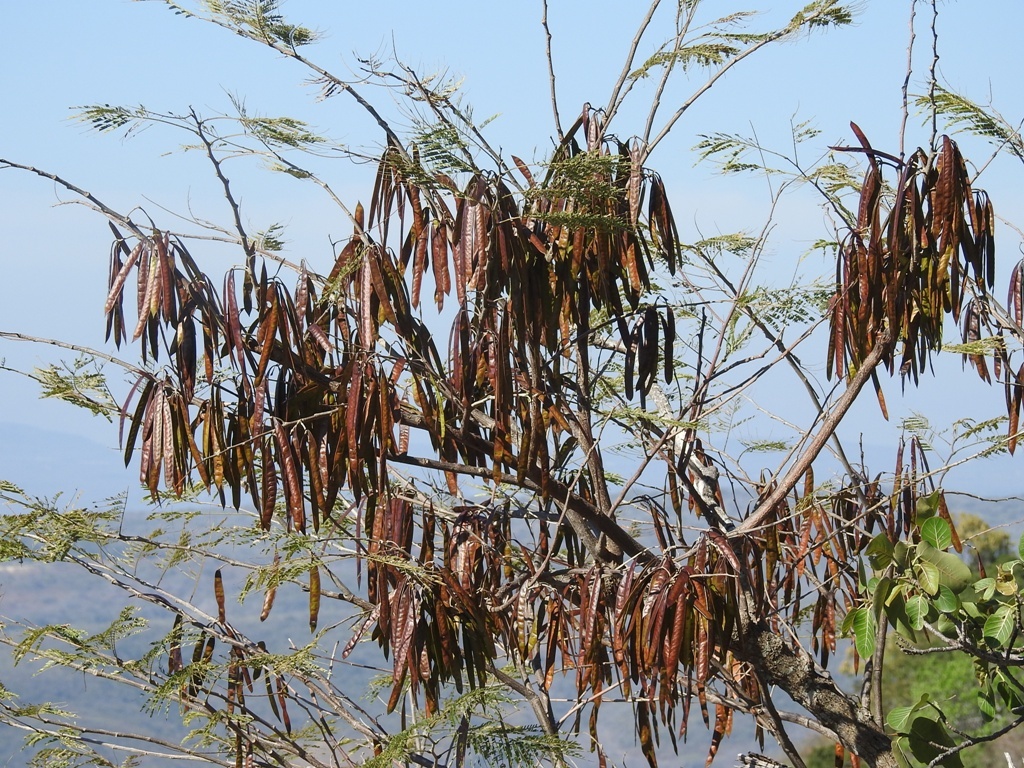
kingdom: Plantae
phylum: Tracheophyta
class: Magnoliopsida
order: Fabales
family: Fabaceae
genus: Leucaena
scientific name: Leucaena diversifolia
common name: Red leucaena
